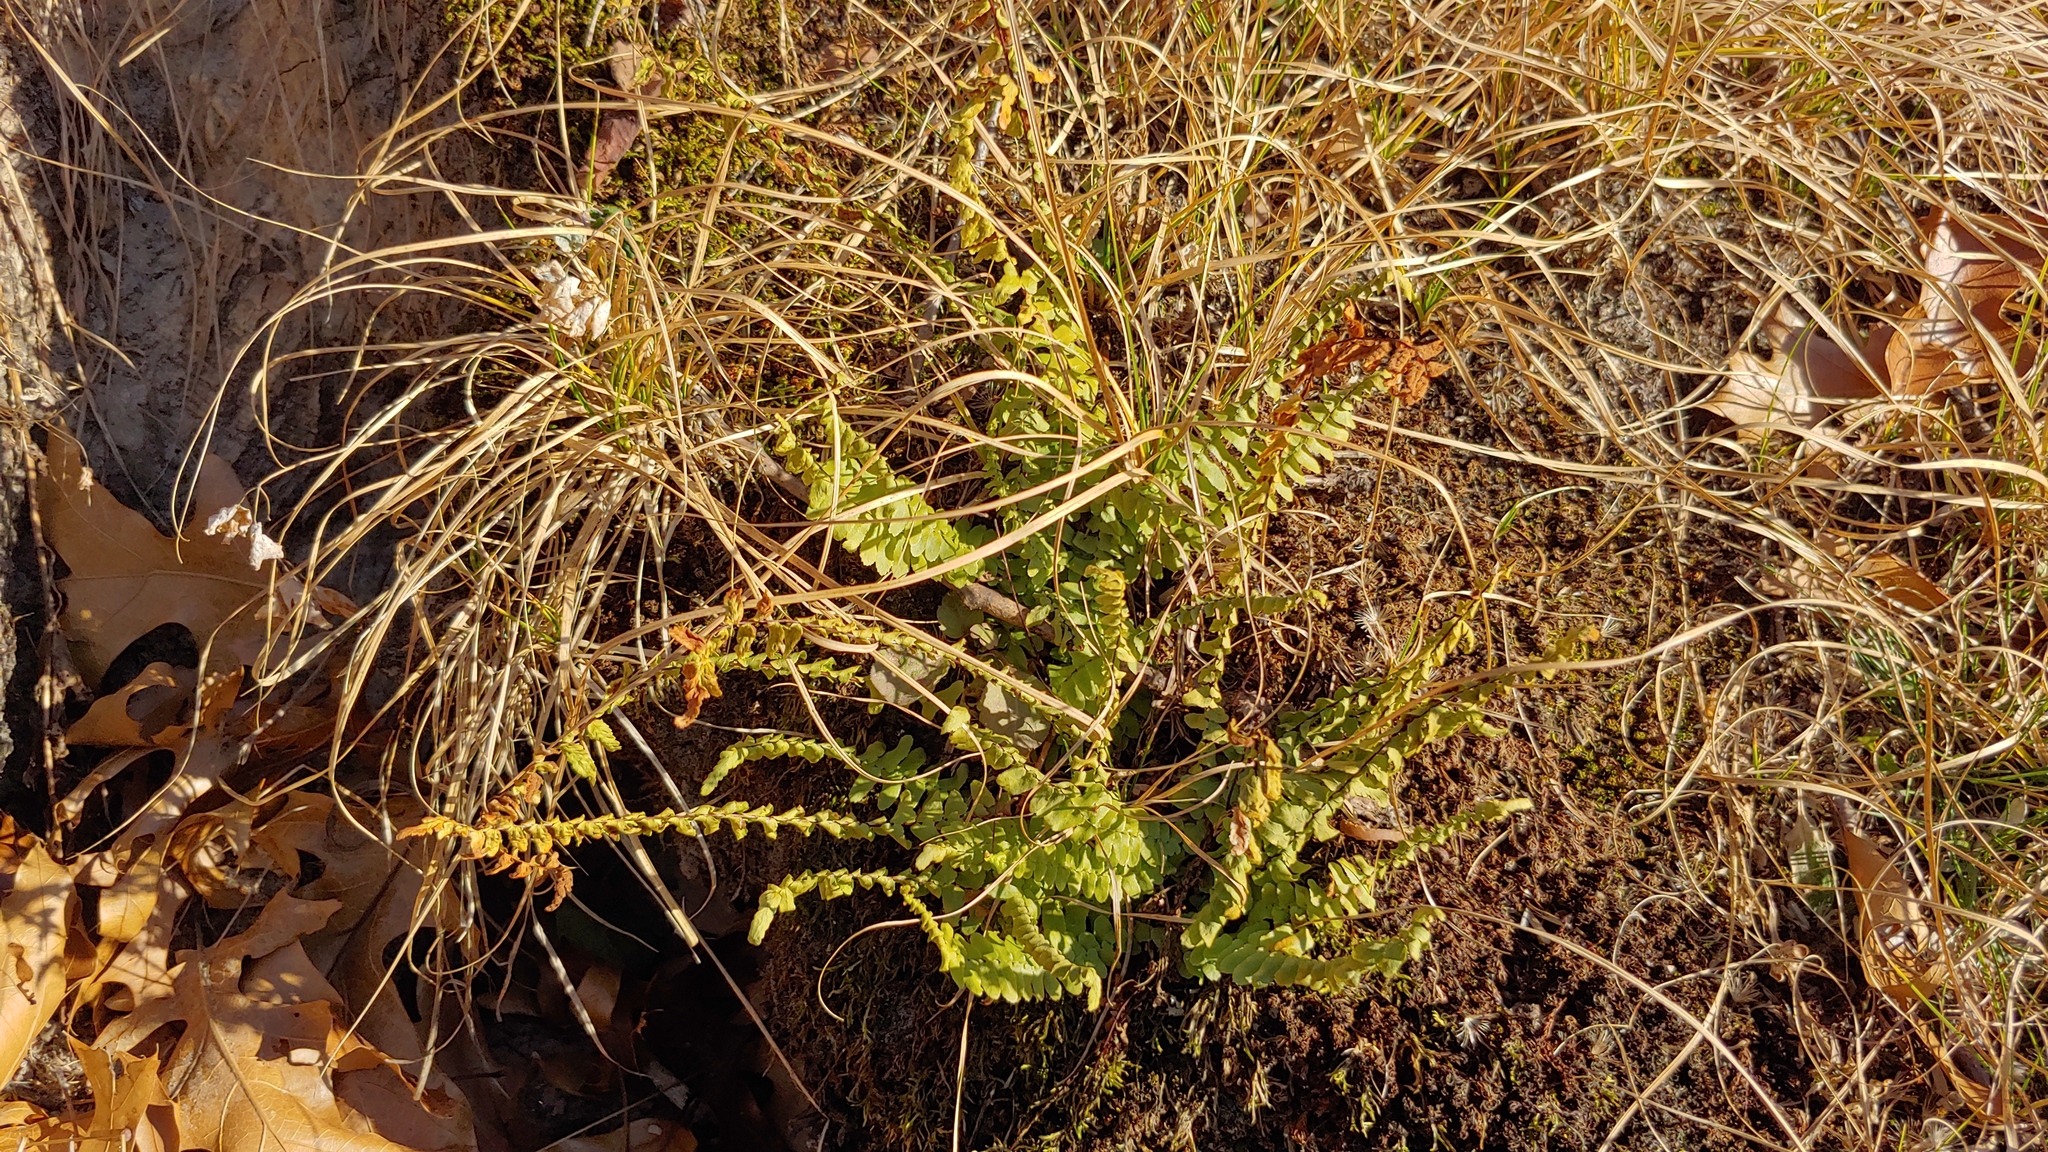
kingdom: Plantae
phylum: Tracheophyta
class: Polypodiopsida
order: Polypodiales
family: Aspleniaceae
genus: Asplenium
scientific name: Asplenium platyneuron
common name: Ebony spleenwort
